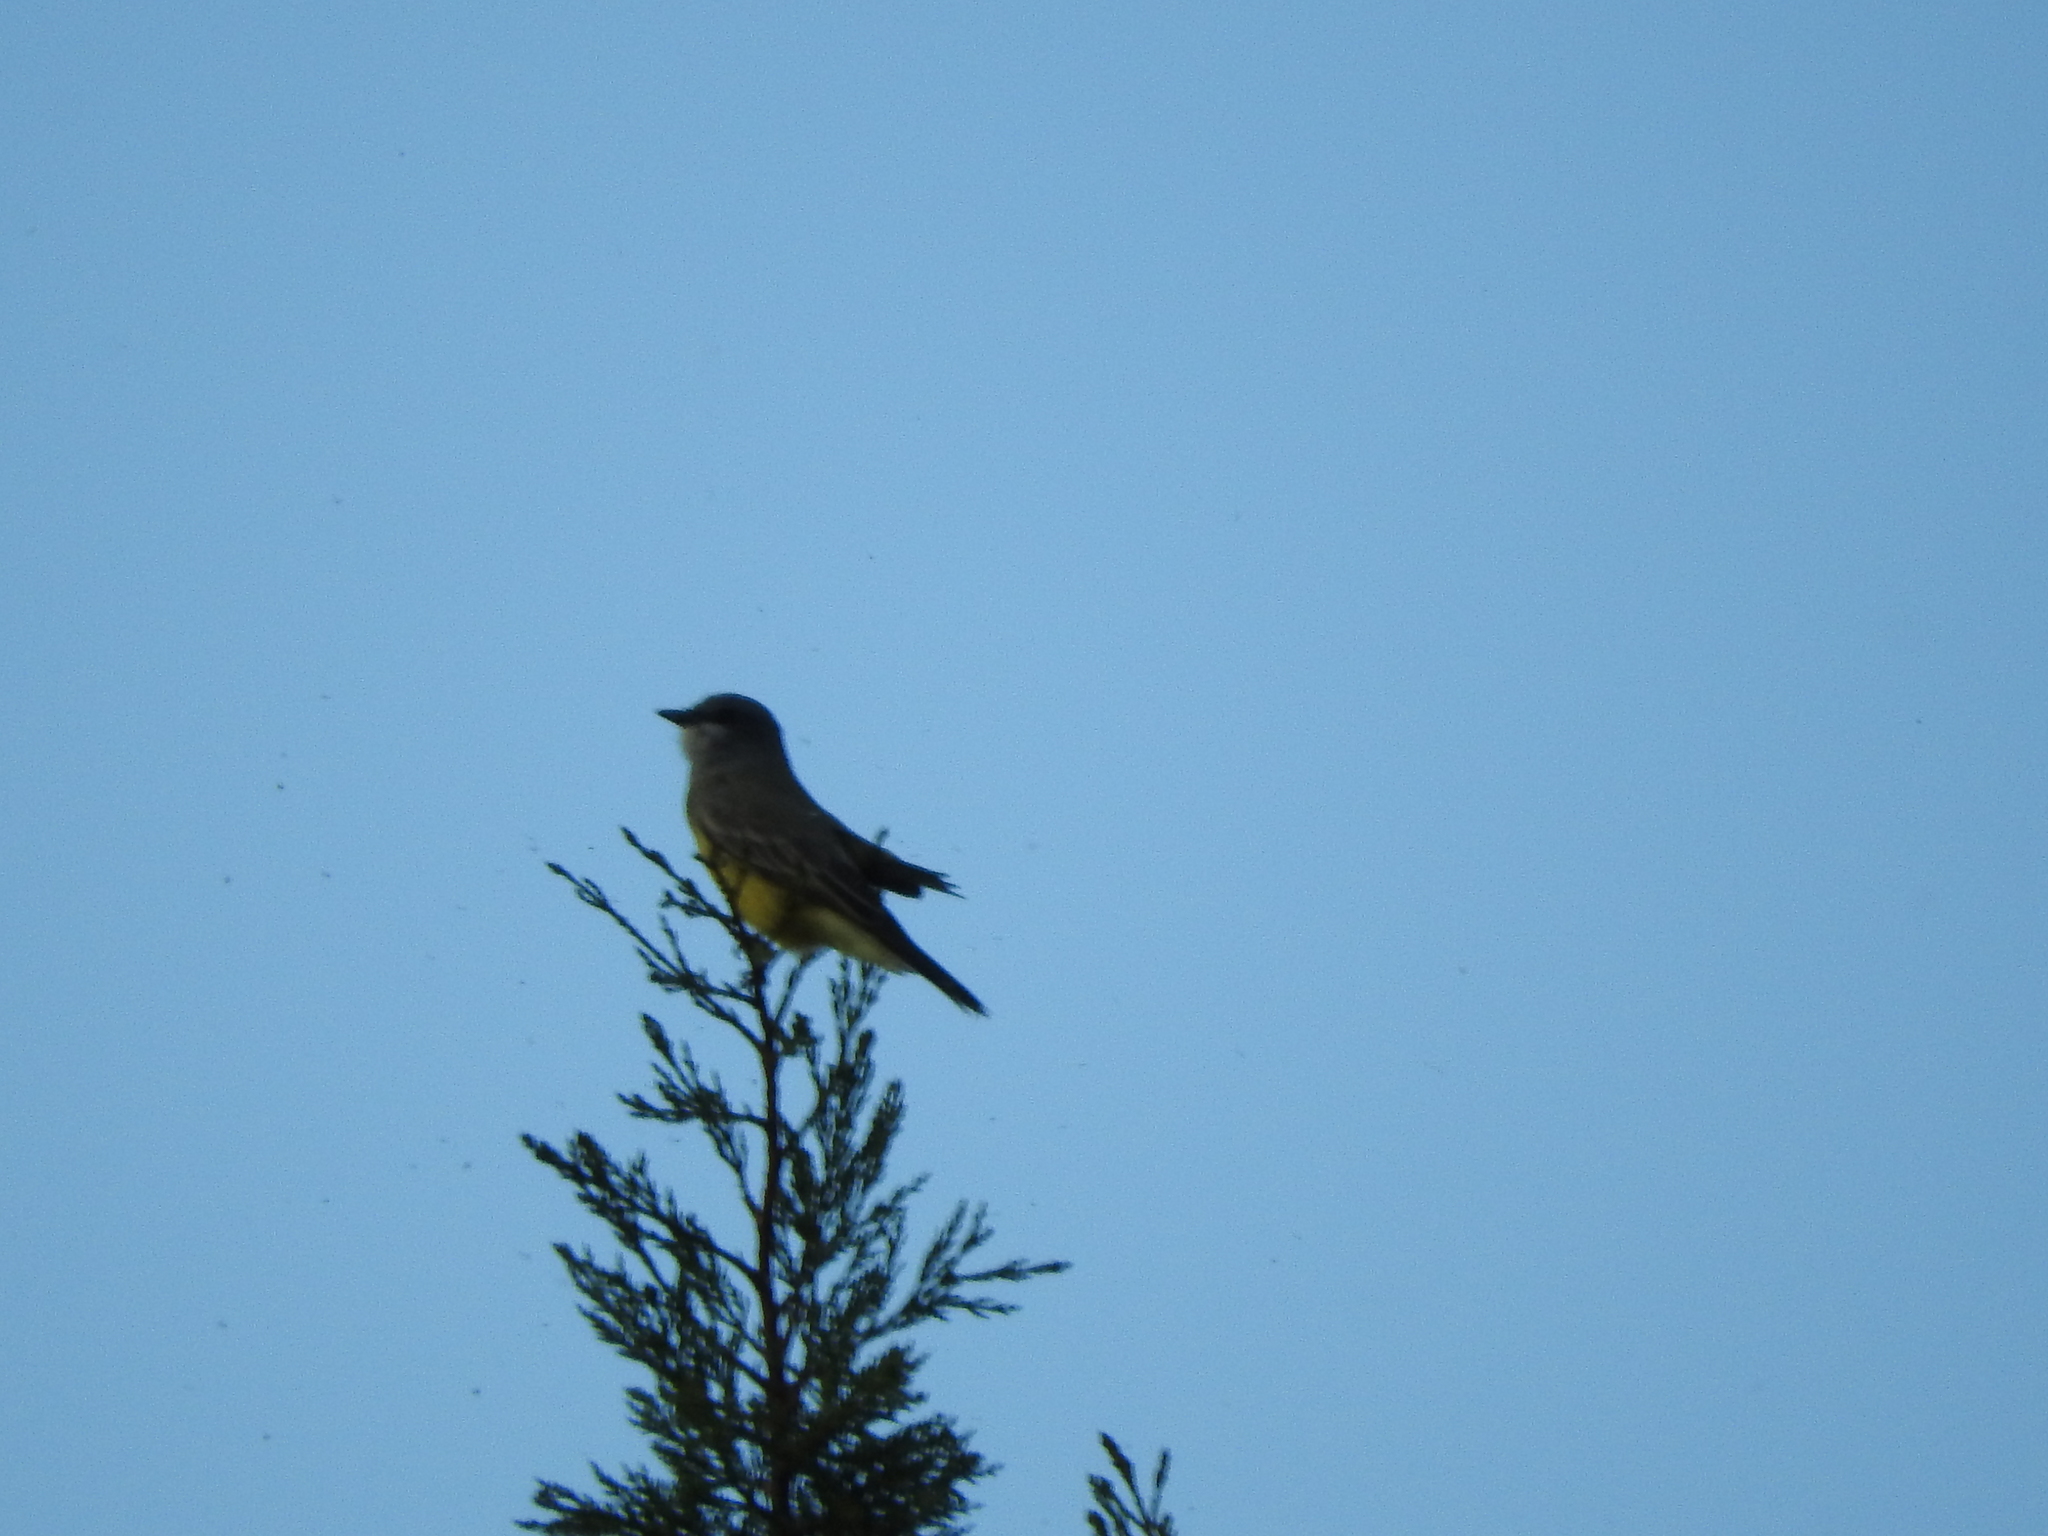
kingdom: Animalia
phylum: Chordata
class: Aves
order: Passeriformes
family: Tyrannidae
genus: Tyrannus
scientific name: Tyrannus vociferans
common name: Cassin's kingbird
